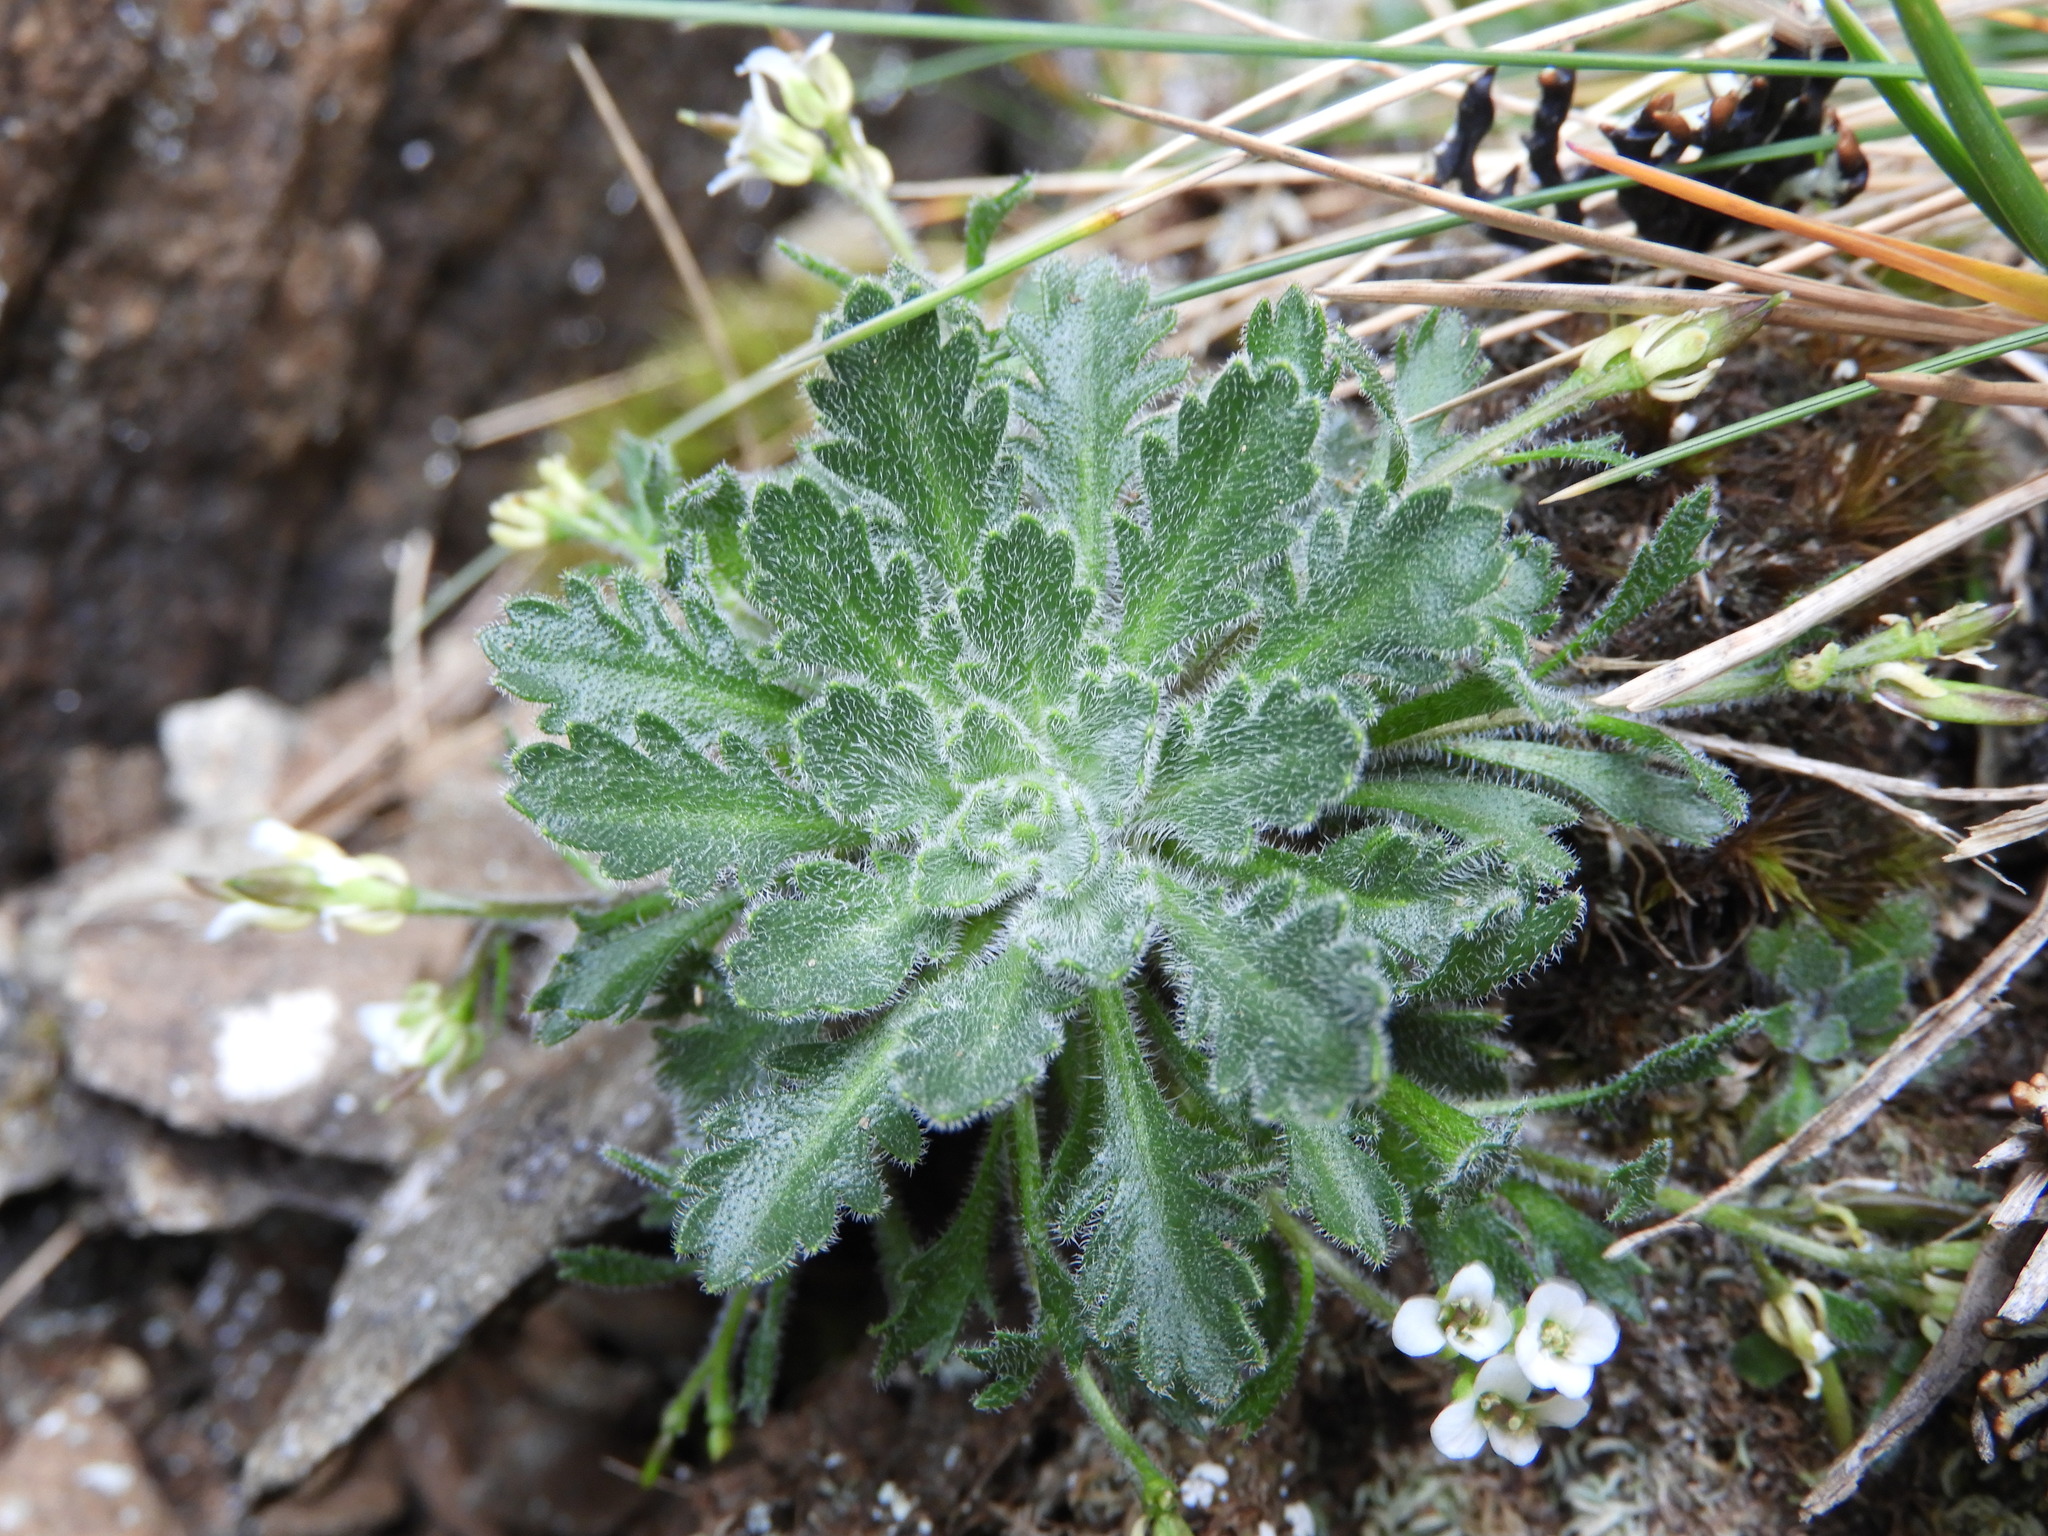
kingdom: Plantae
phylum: Tracheophyta
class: Magnoliopsida
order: Brassicales
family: Brassicaceae
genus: Pachycladon
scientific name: Pachycladon novae-zelandiae
